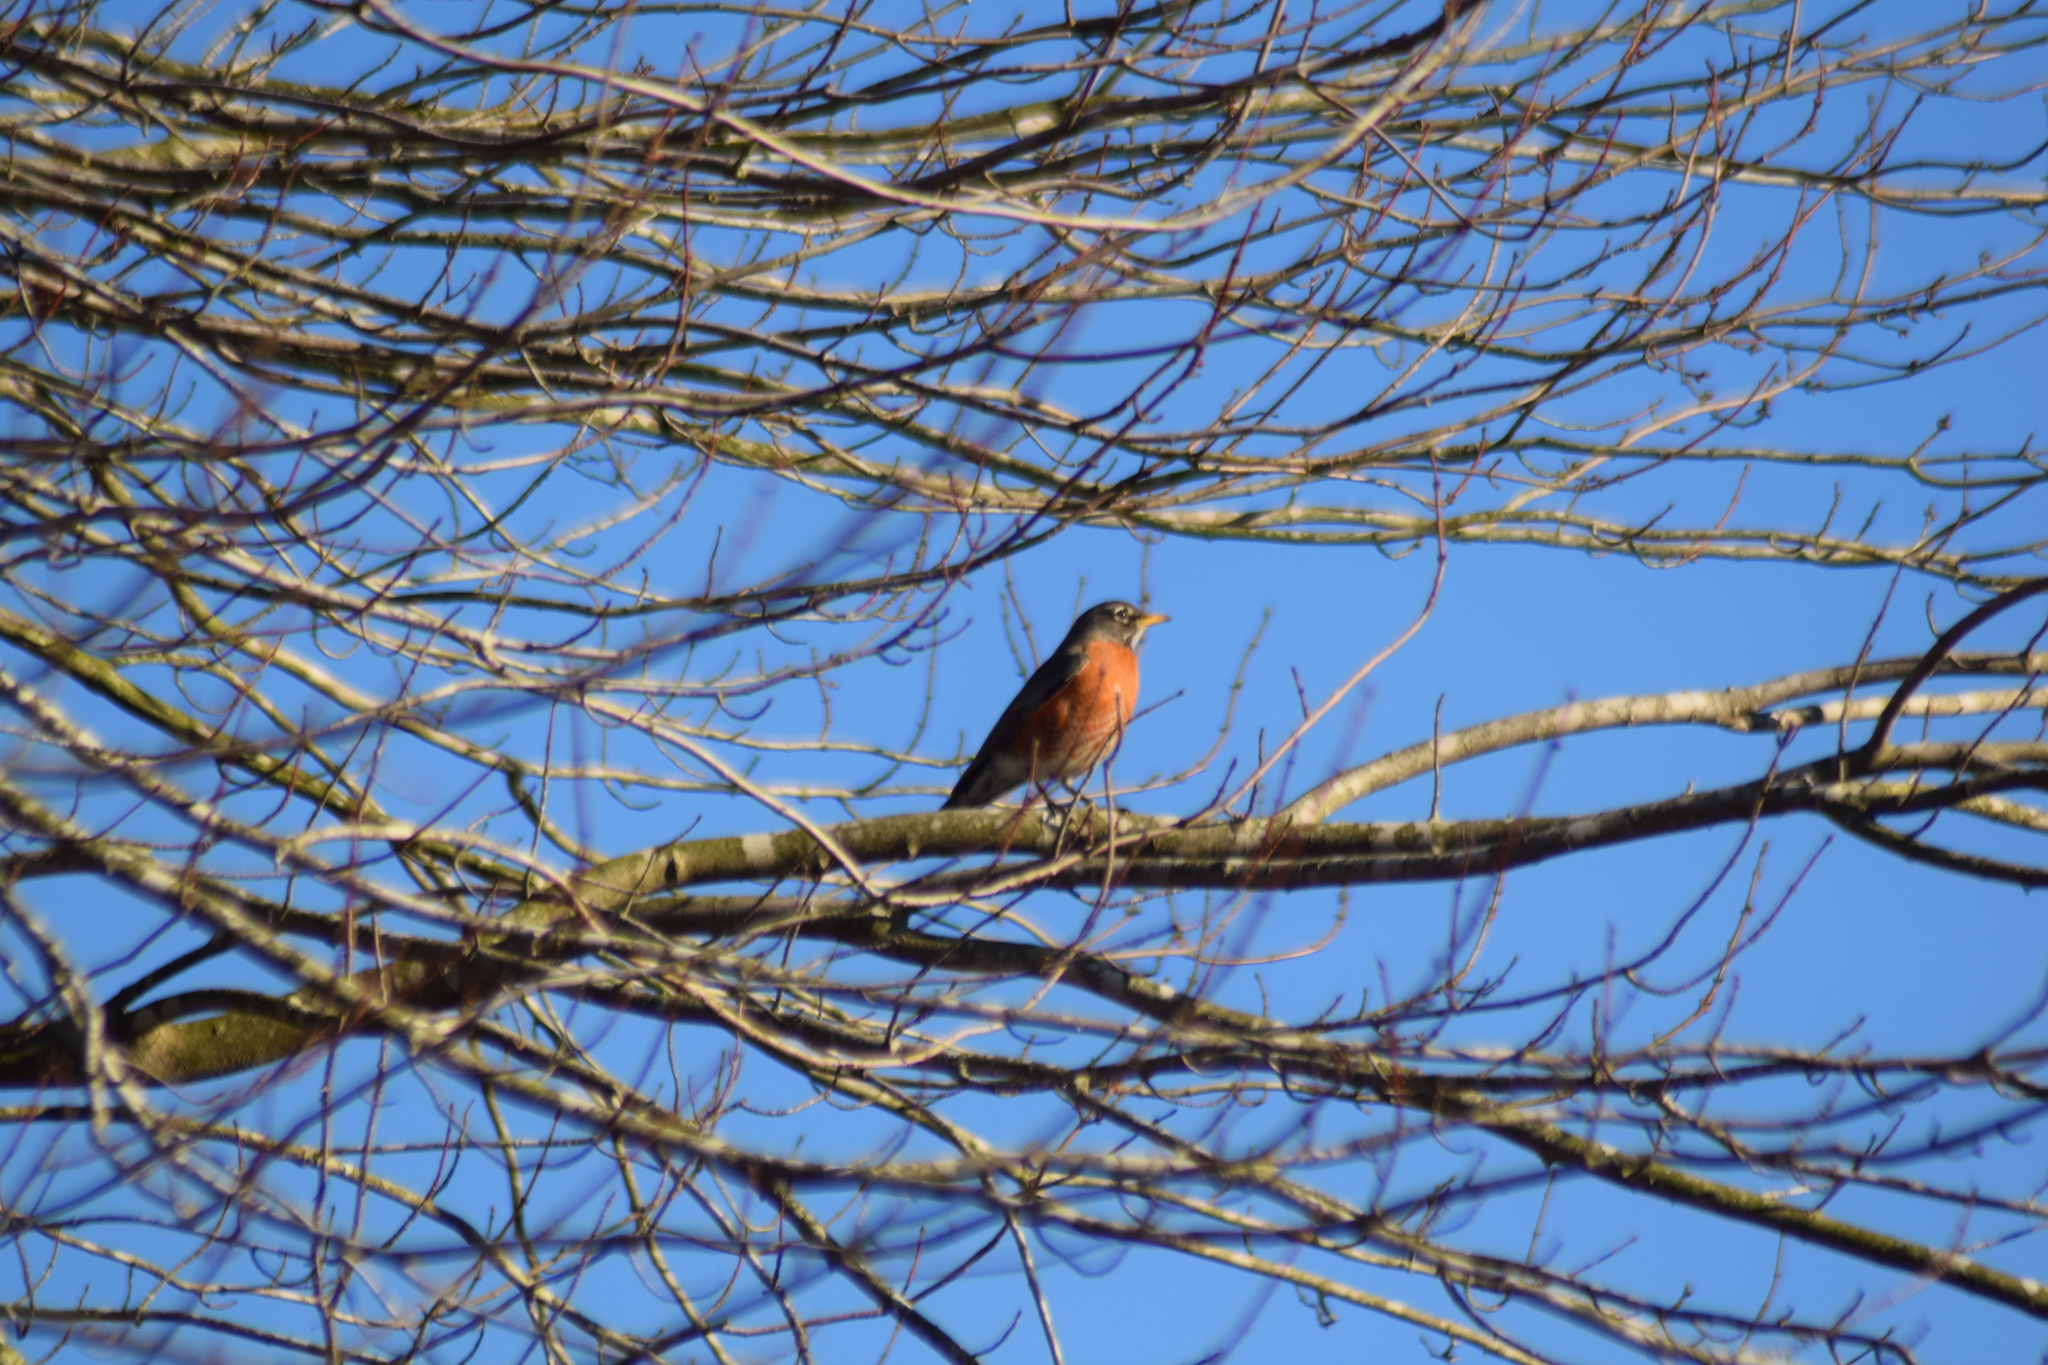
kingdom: Animalia
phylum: Chordata
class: Aves
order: Passeriformes
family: Turdidae
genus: Turdus
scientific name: Turdus migratorius
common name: American robin
